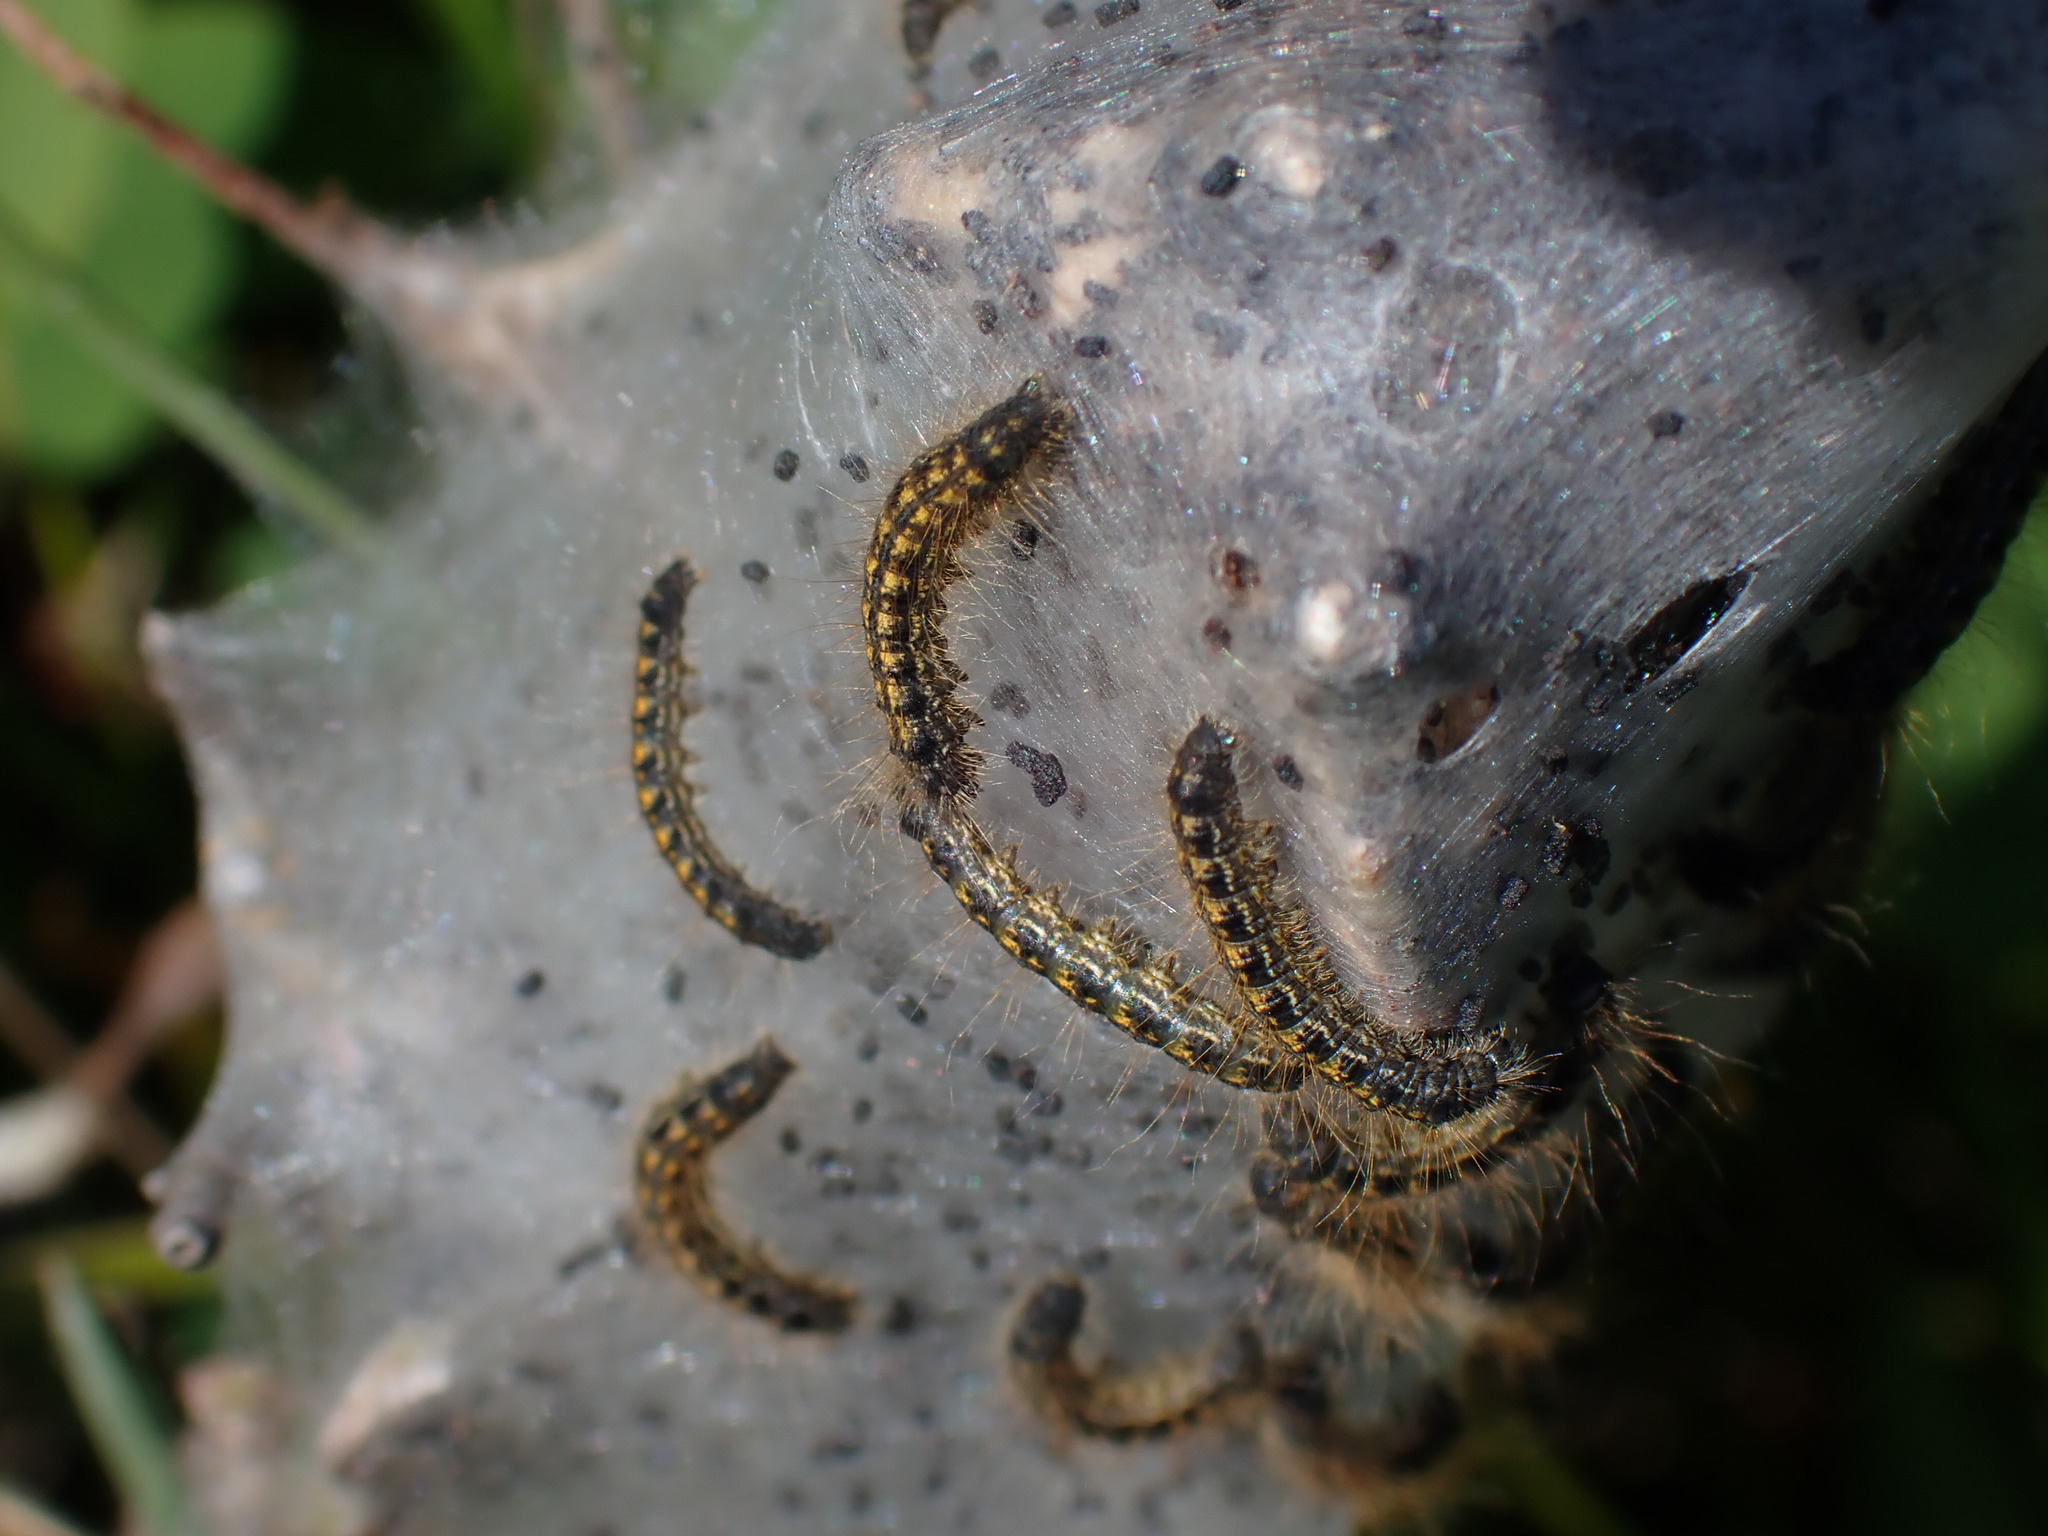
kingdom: Animalia
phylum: Arthropoda
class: Insecta
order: Lepidoptera
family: Lasiocampidae
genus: Malacosoma
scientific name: Malacosoma californica
